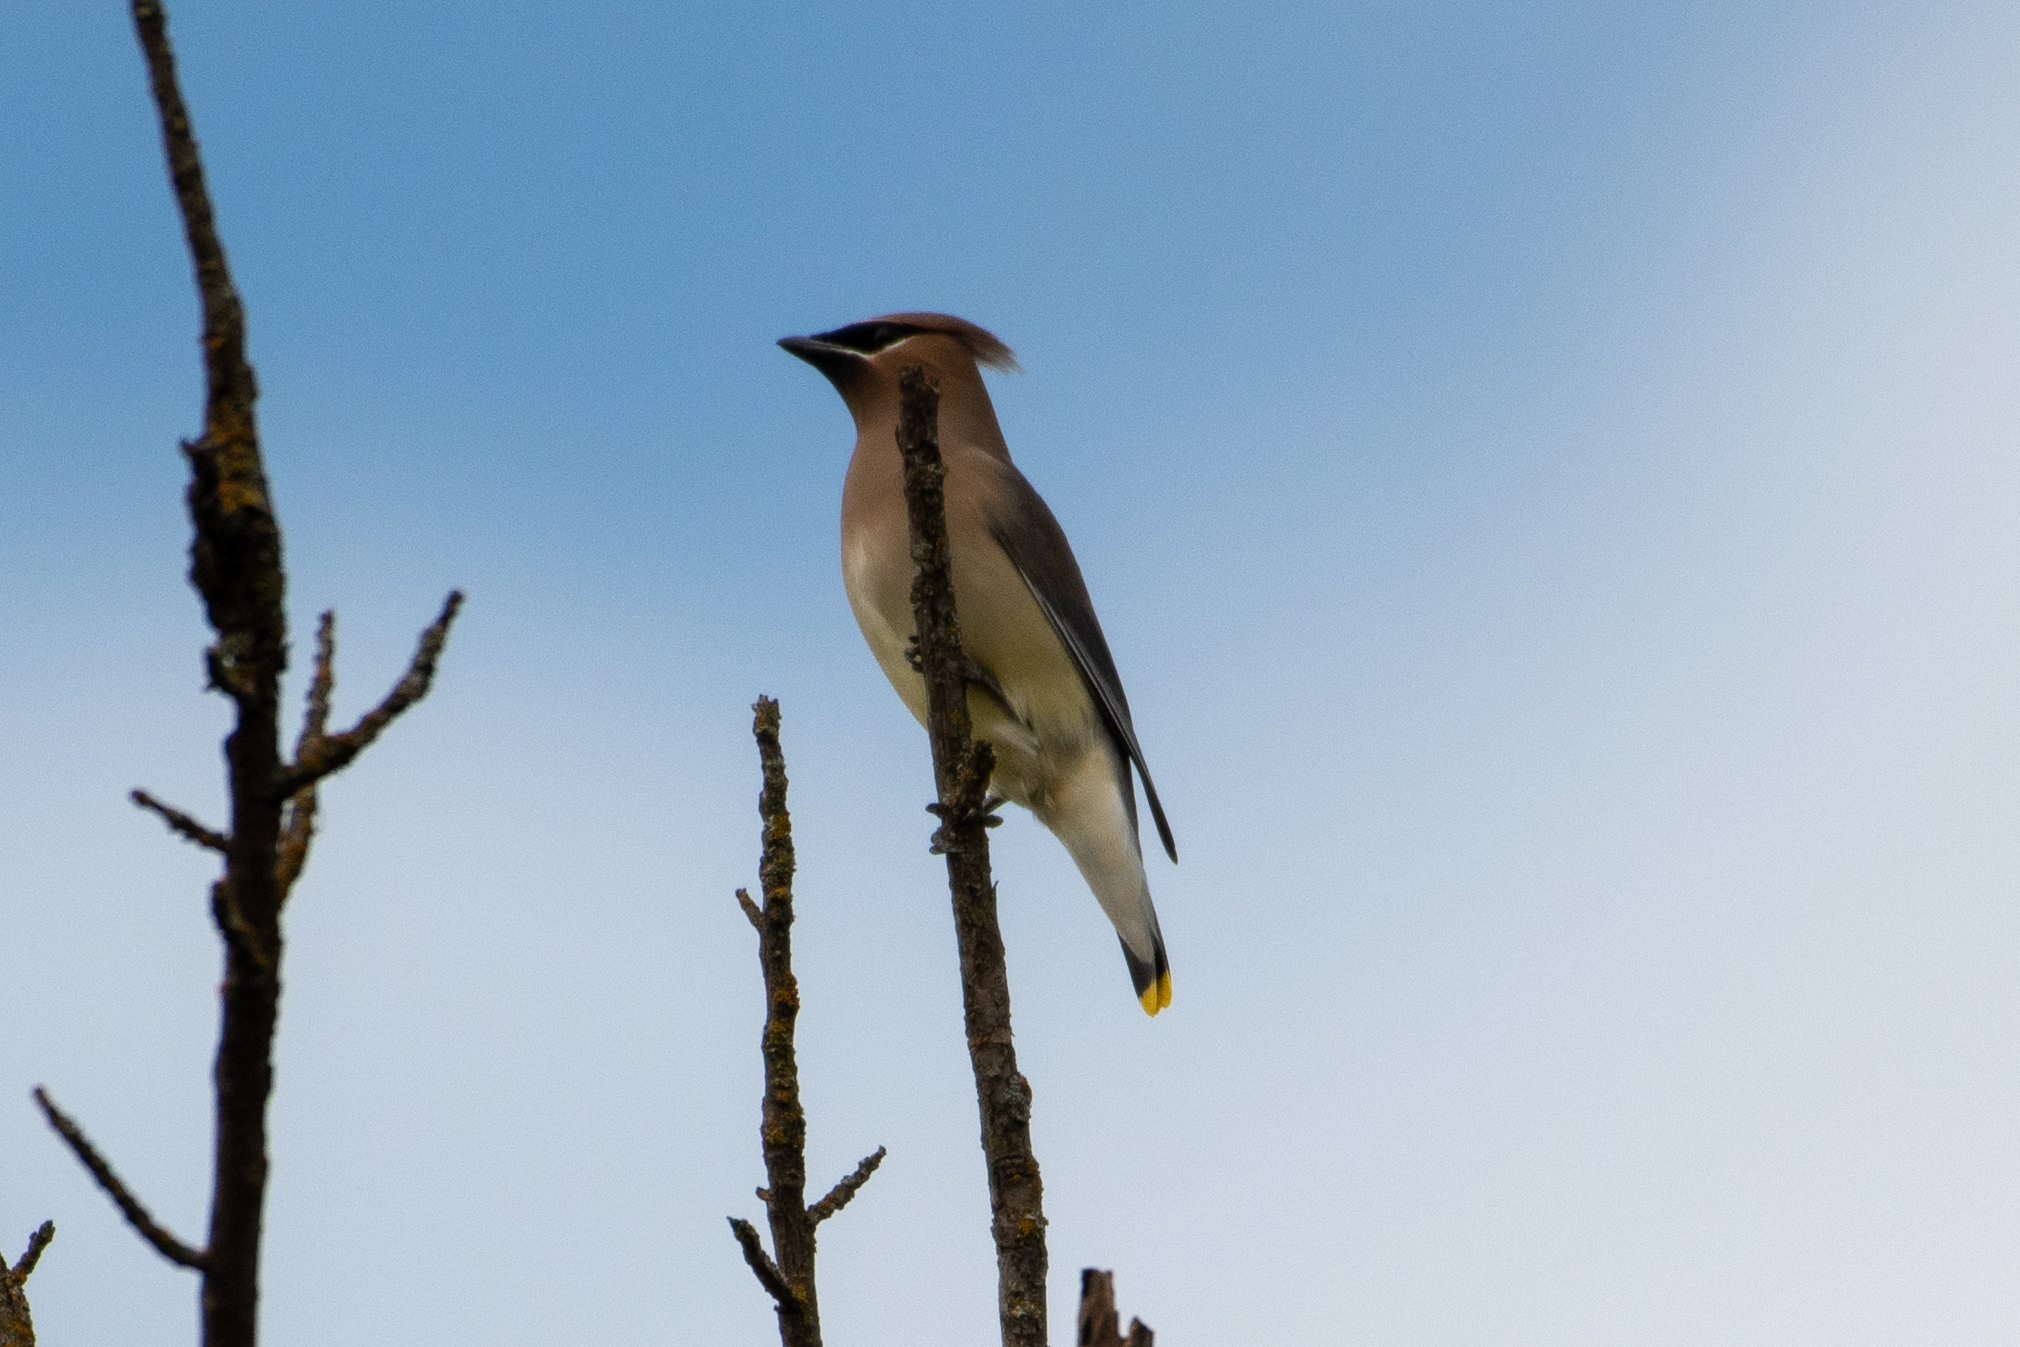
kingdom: Animalia
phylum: Chordata
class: Aves
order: Passeriformes
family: Bombycillidae
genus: Bombycilla
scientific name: Bombycilla cedrorum
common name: Cedar waxwing
